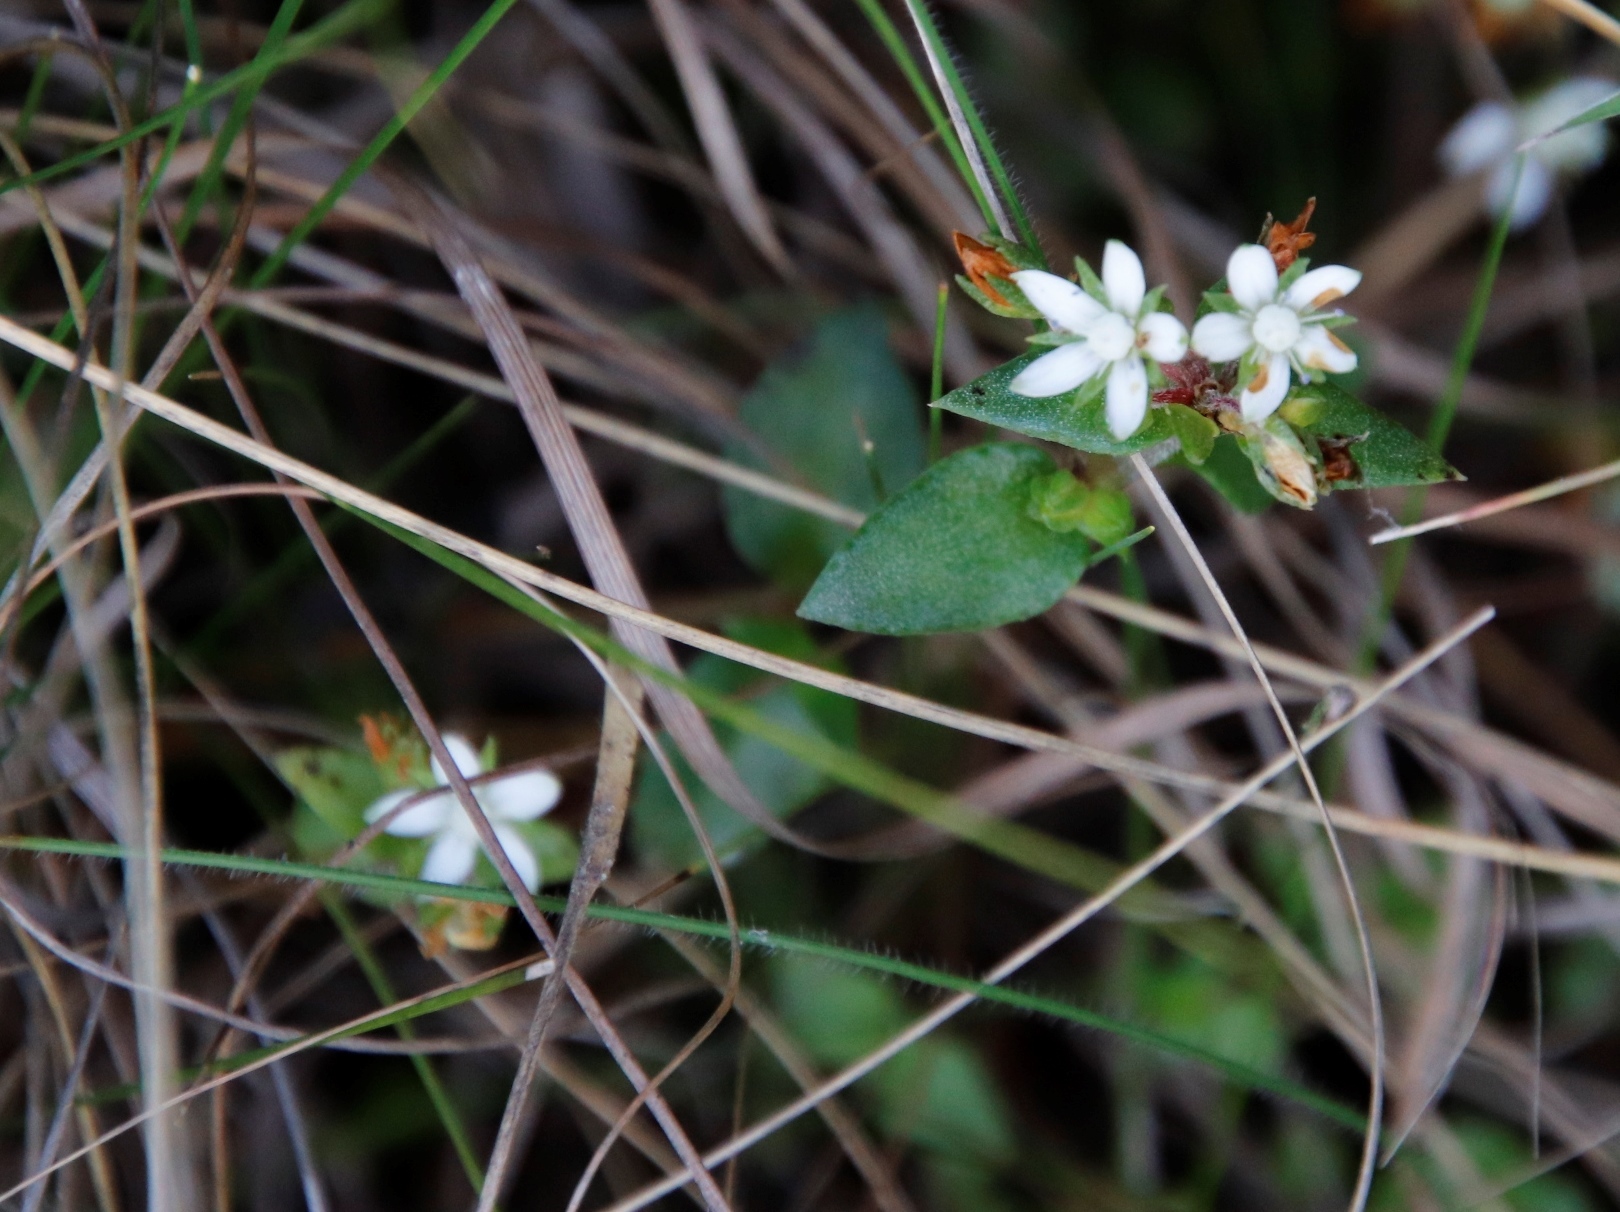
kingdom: Plantae
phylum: Tracheophyta
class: Magnoliopsida
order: Saxifragales
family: Crassulaceae
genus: Crassula
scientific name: Crassula pellucida
